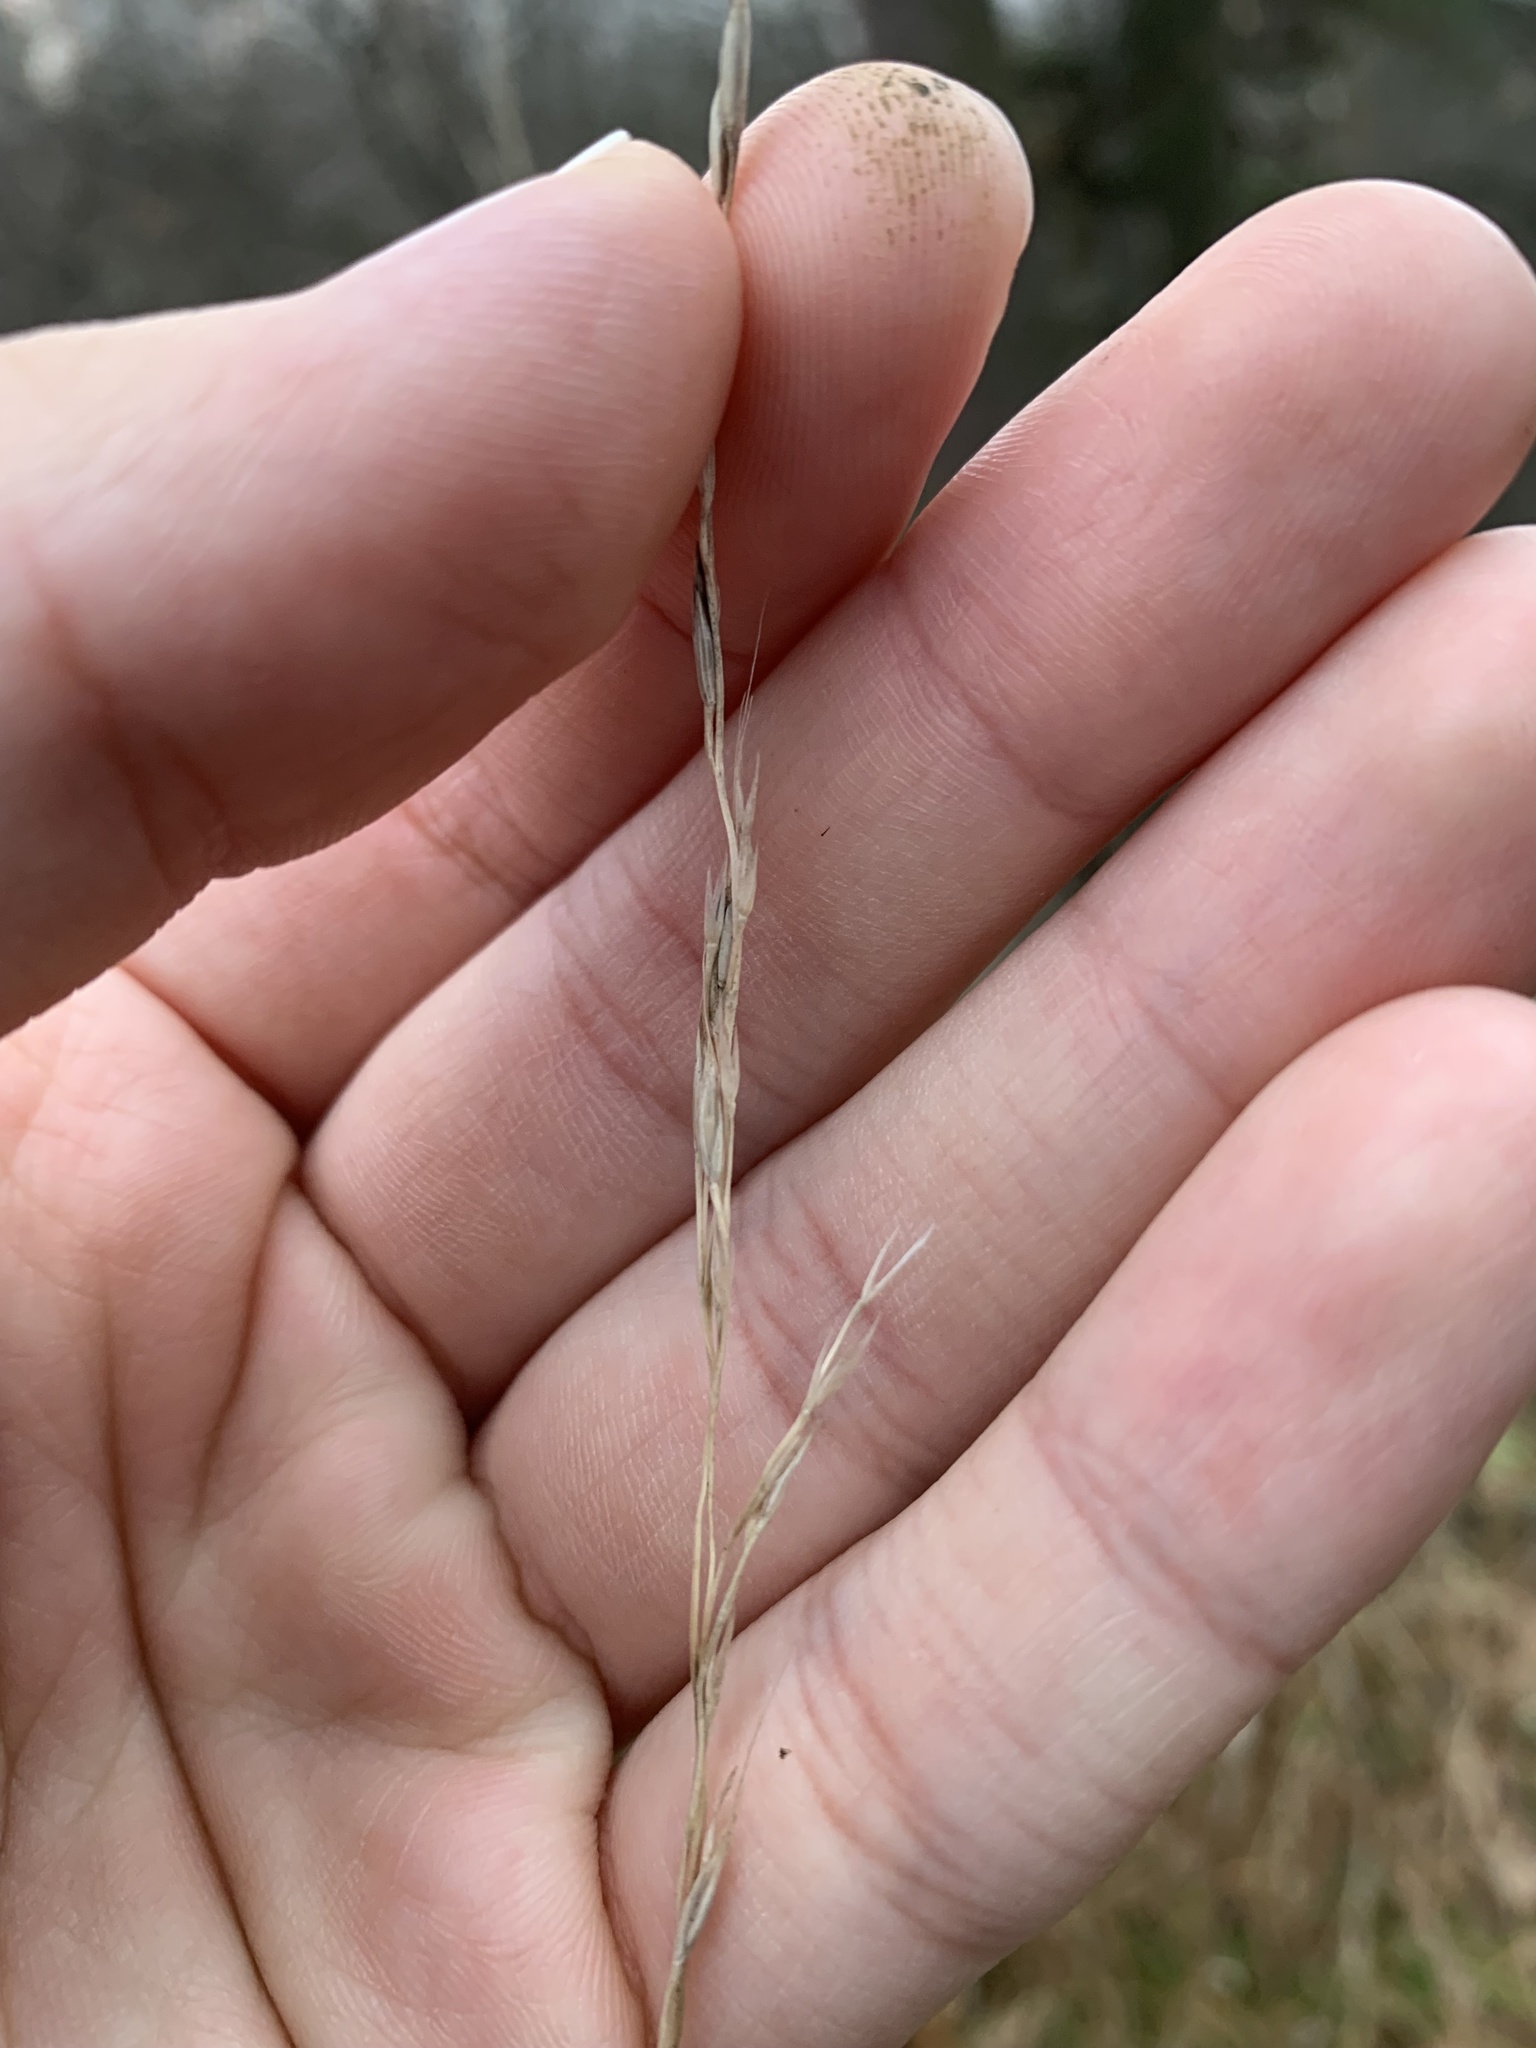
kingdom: Plantae
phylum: Tracheophyta
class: Liliopsida
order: Poales
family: Poaceae
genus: Lolium
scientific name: Lolium giganteum
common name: Giant fescue
